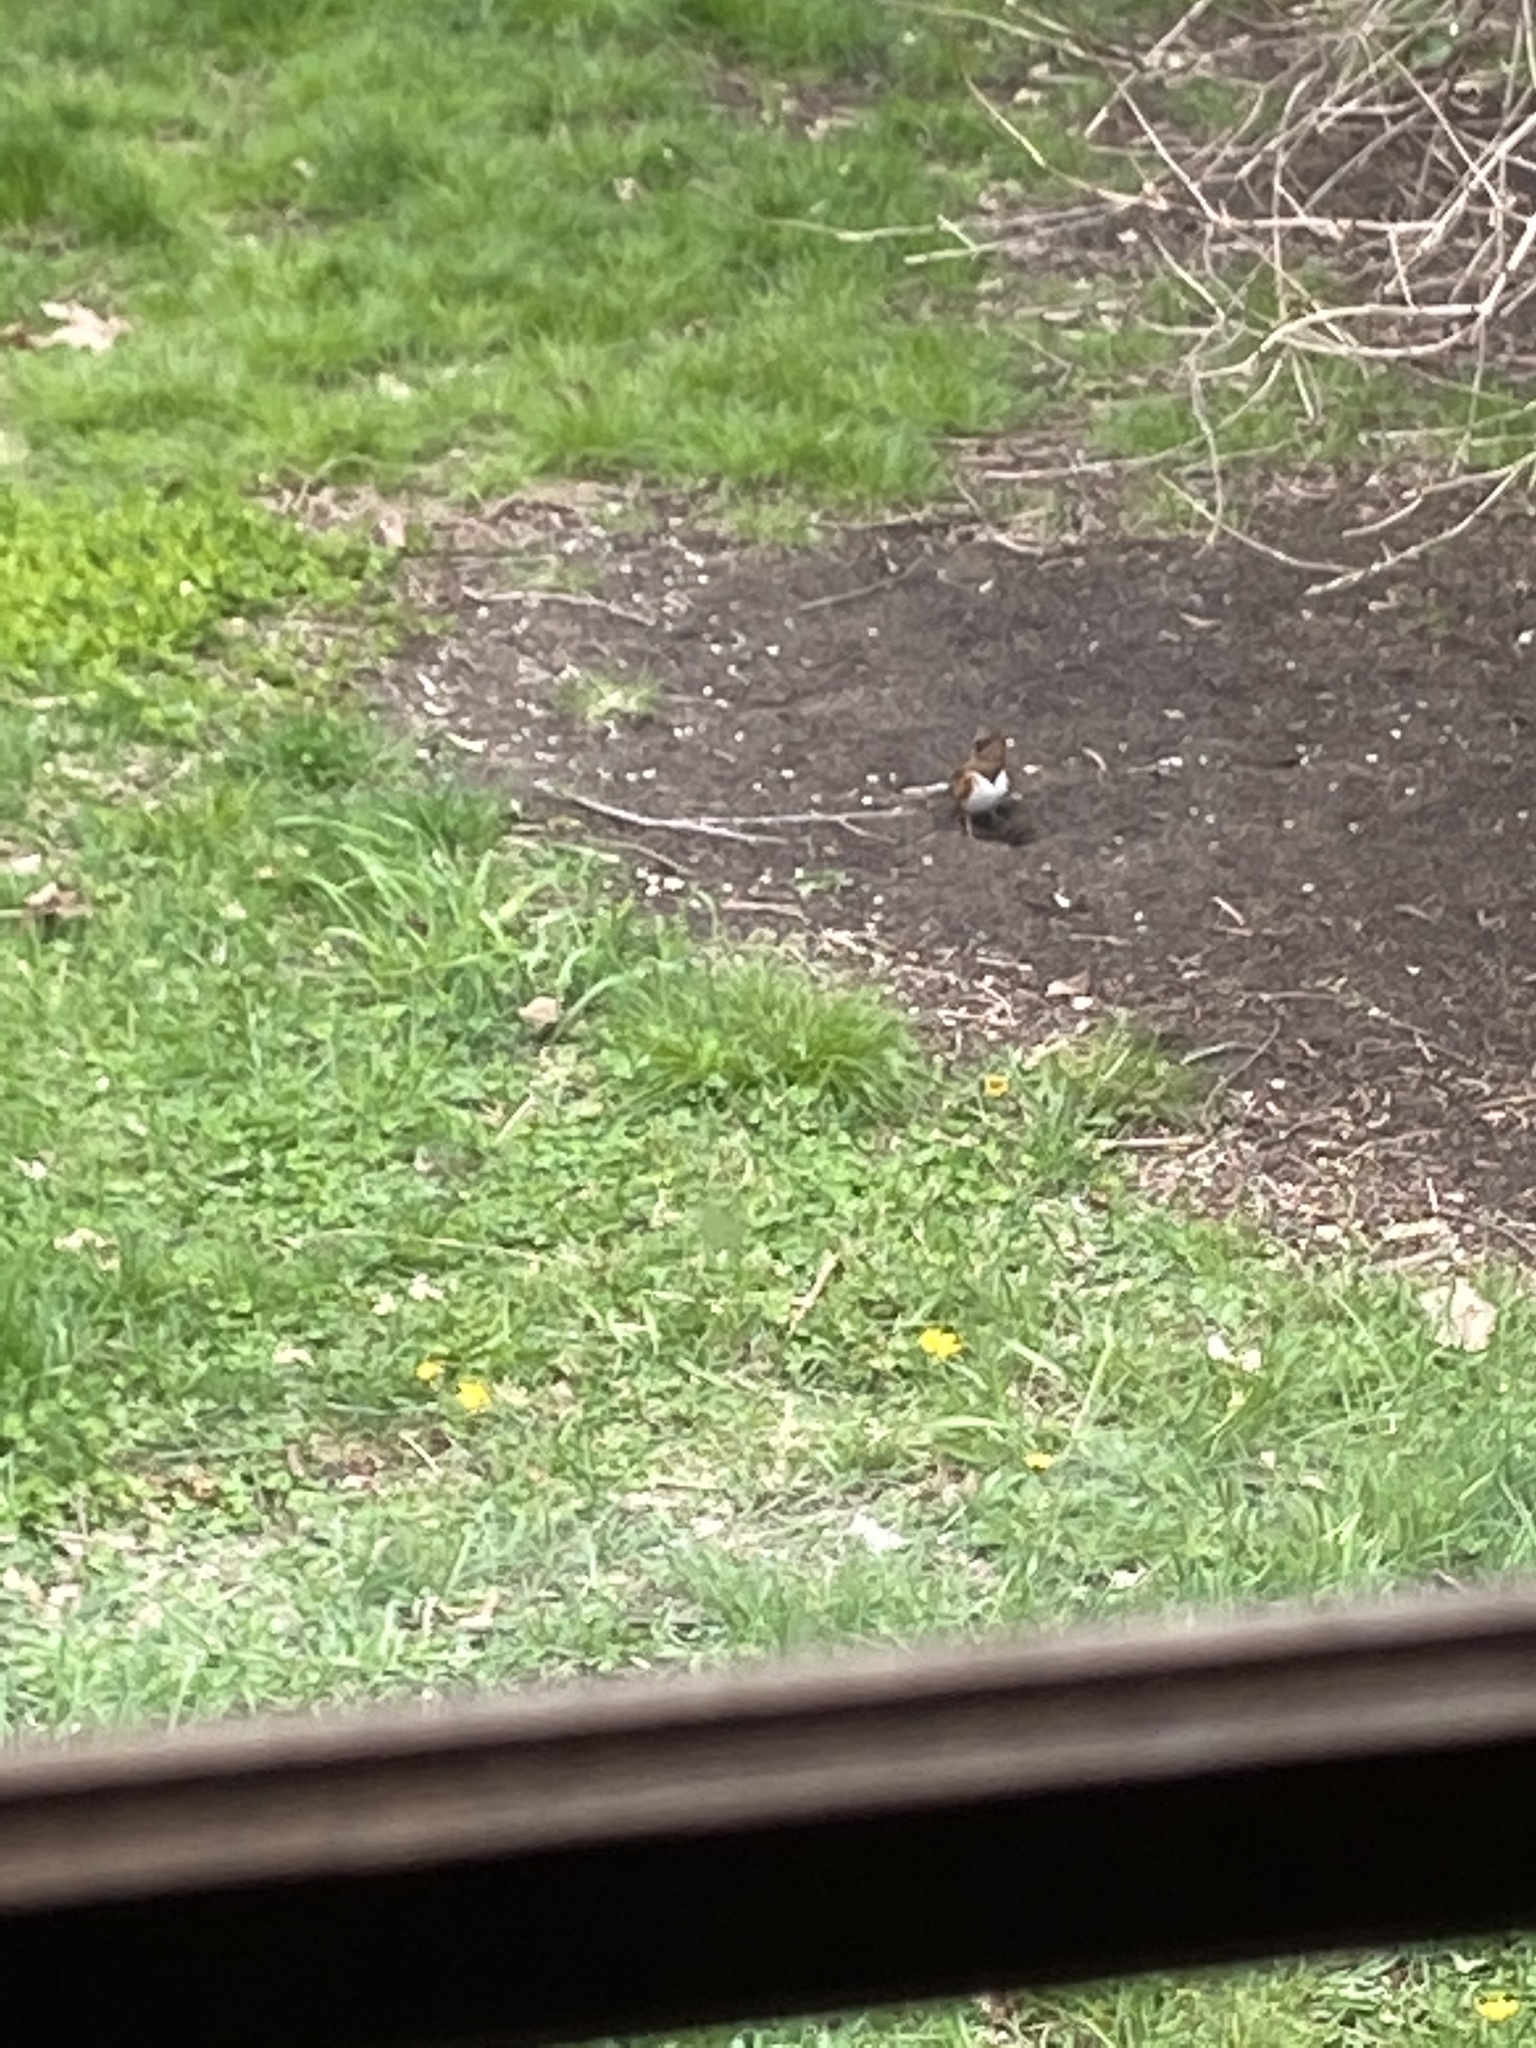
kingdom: Animalia
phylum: Chordata
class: Aves
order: Passeriformes
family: Passerellidae
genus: Pipilo
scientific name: Pipilo erythrophthalmus
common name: Eastern towhee
